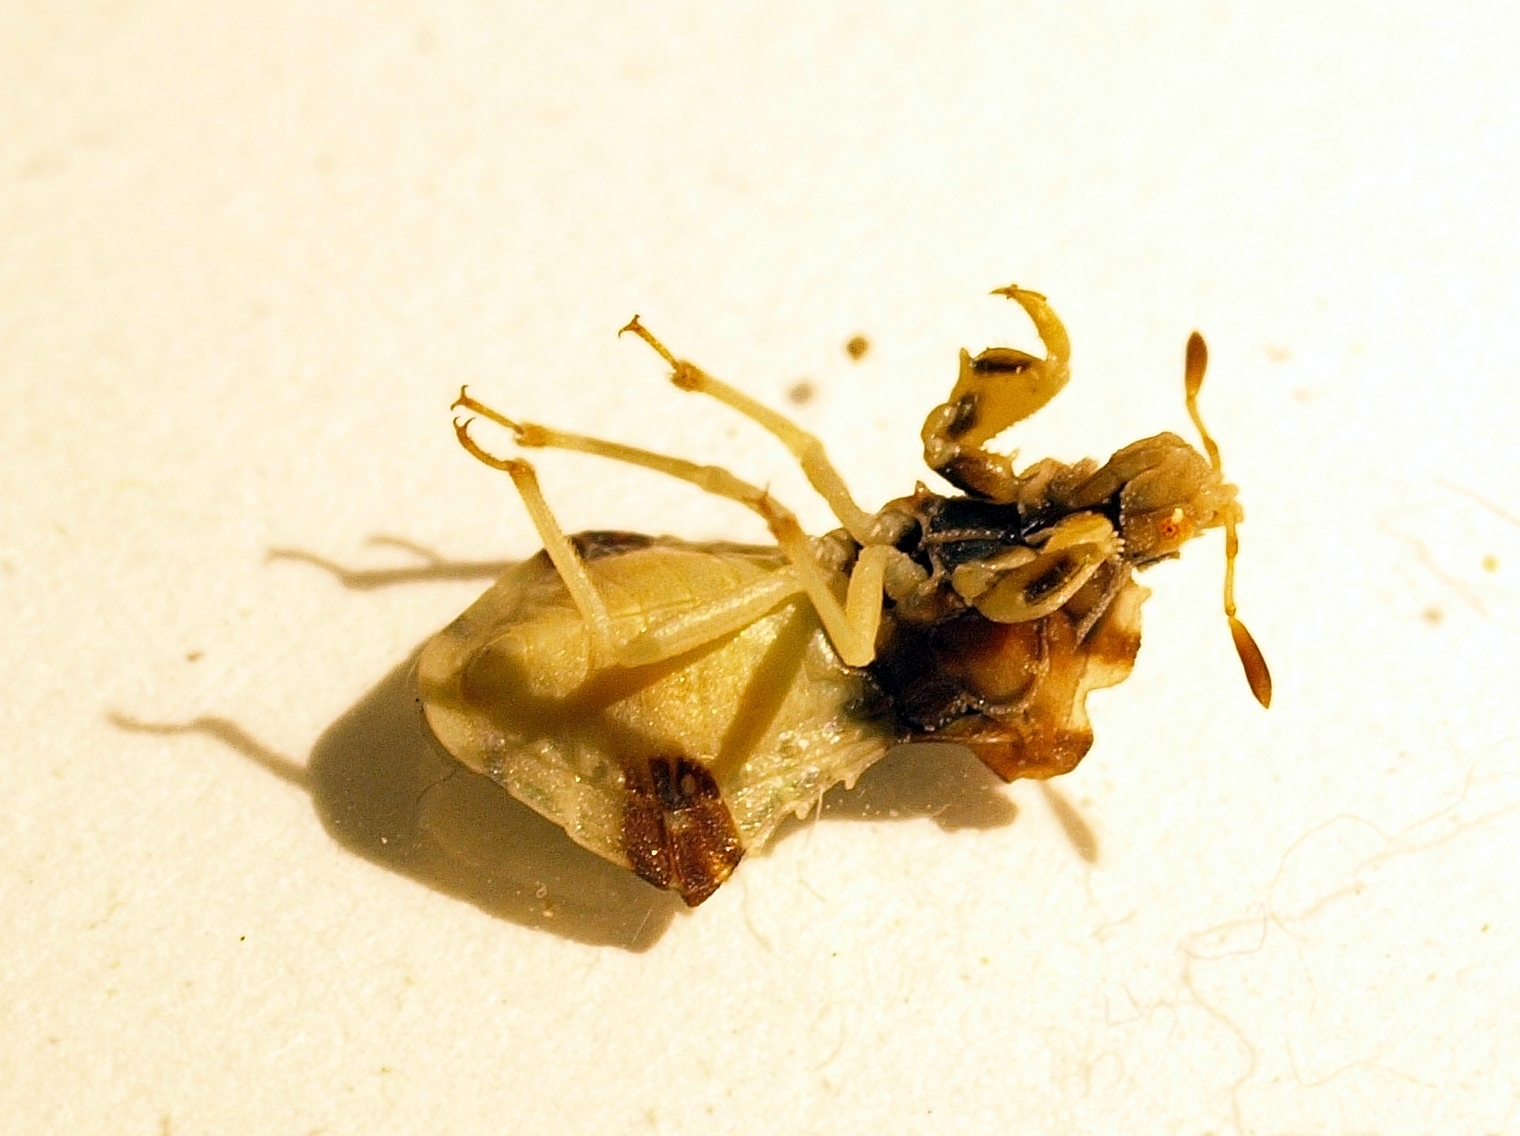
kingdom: Animalia
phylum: Arthropoda
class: Insecta
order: Hemiptera
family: Reduviidae
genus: Phymata
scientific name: Phymata fasciata
